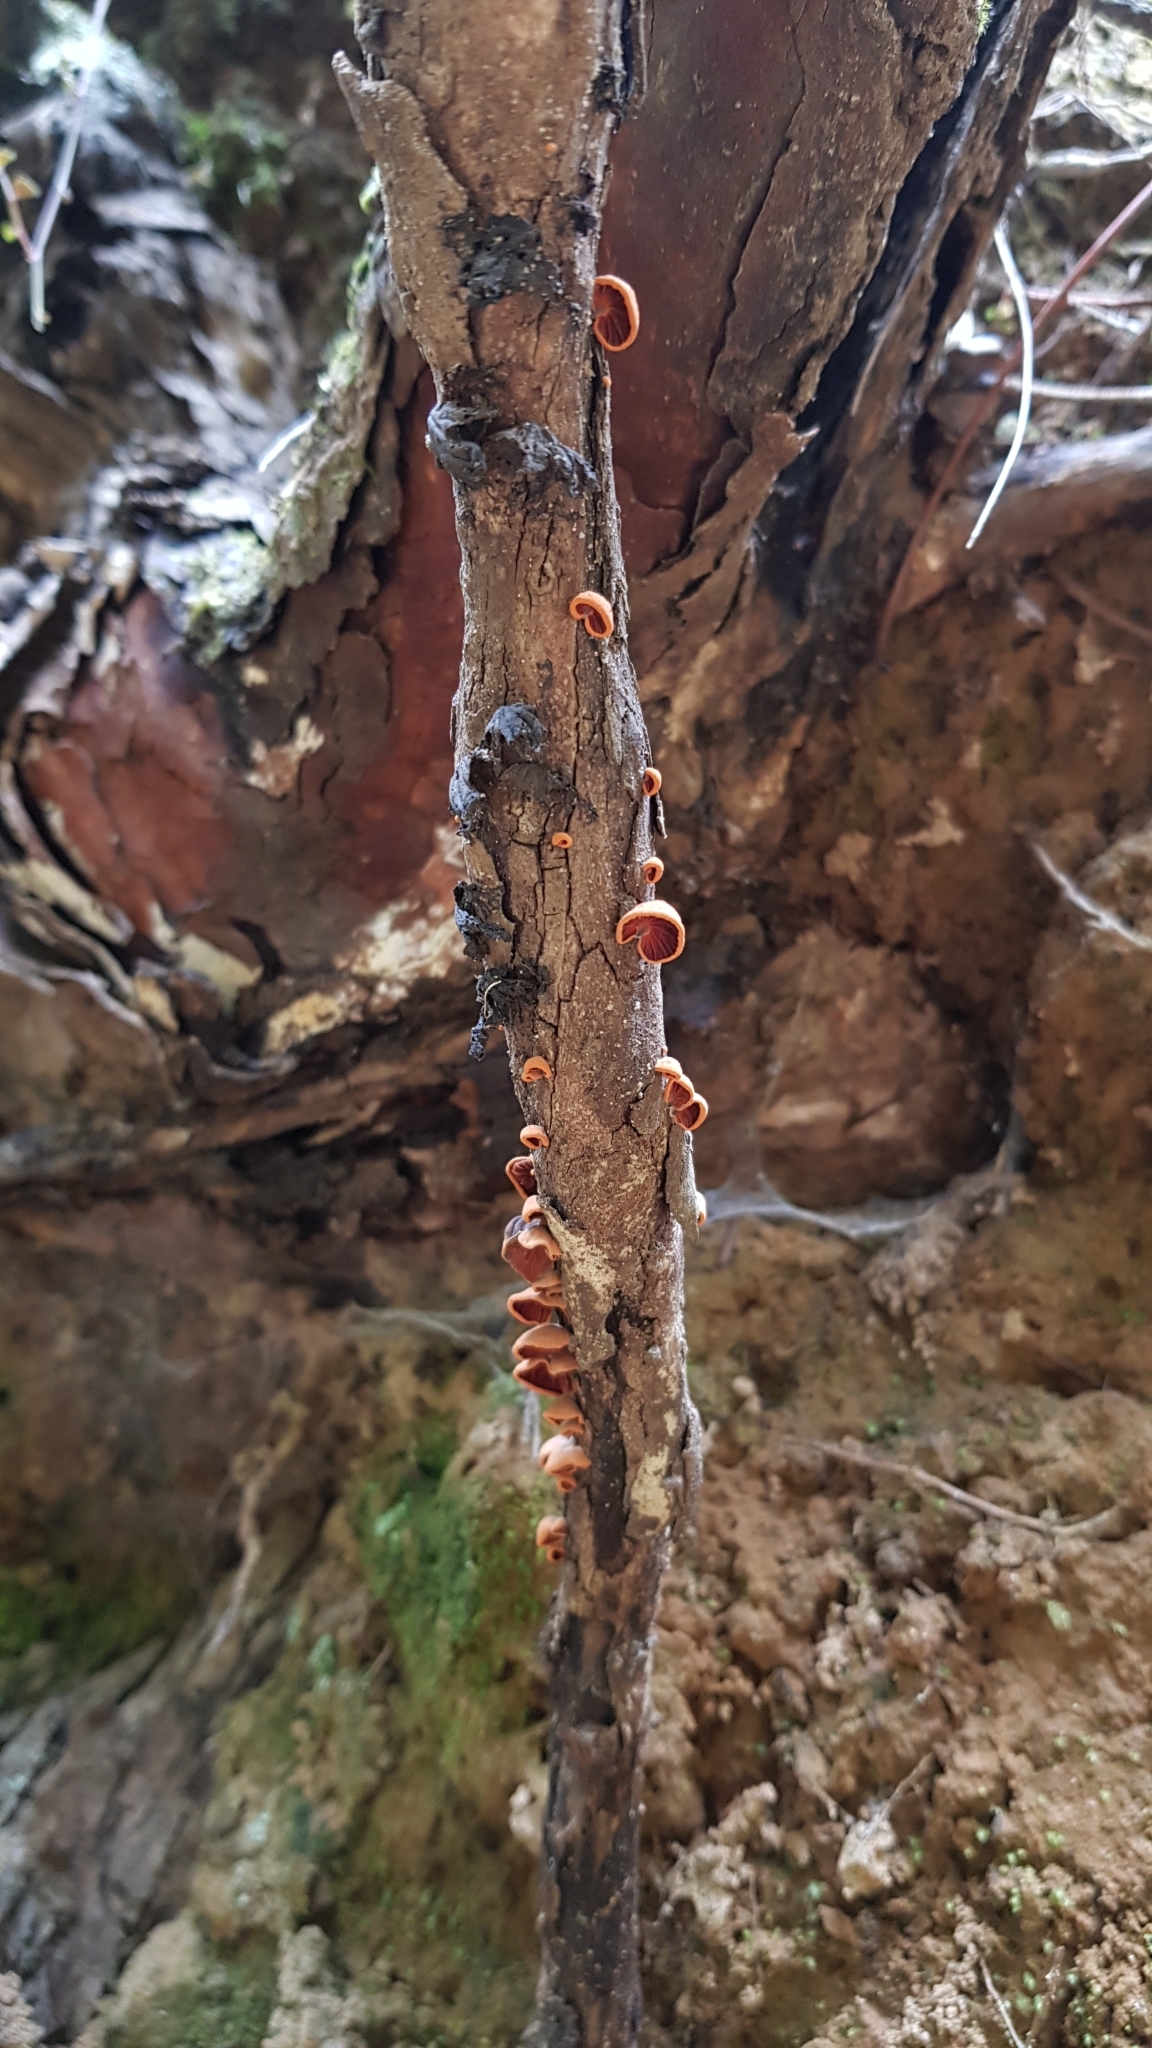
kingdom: Fungi
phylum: Basidiomycota
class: Agaricomycetes
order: Agaricales
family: Omphalotaceae
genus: Anthracophyllum
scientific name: Anthracophyllum archeri
